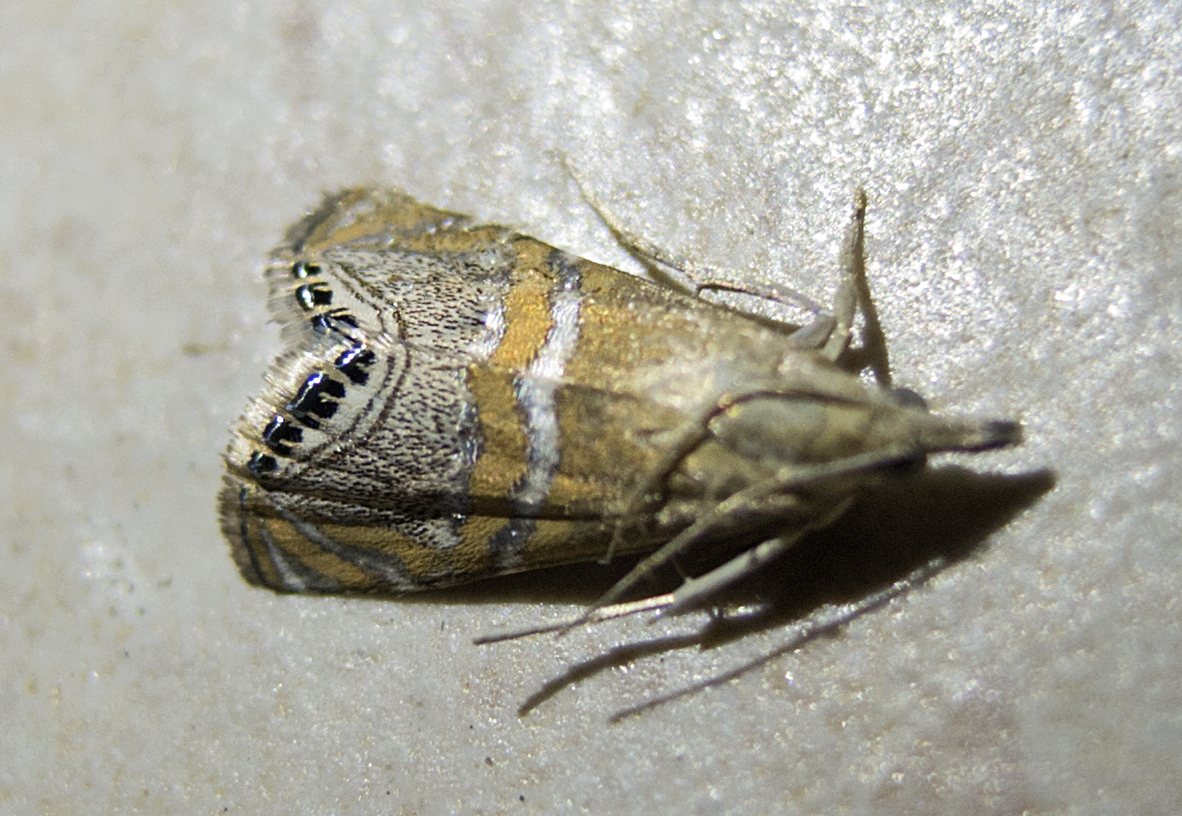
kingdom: Animalia
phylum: Arthropoda
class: Insecta
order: Lepidoptera
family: Crambidae
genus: Euchromius
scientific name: Euchromius bella
